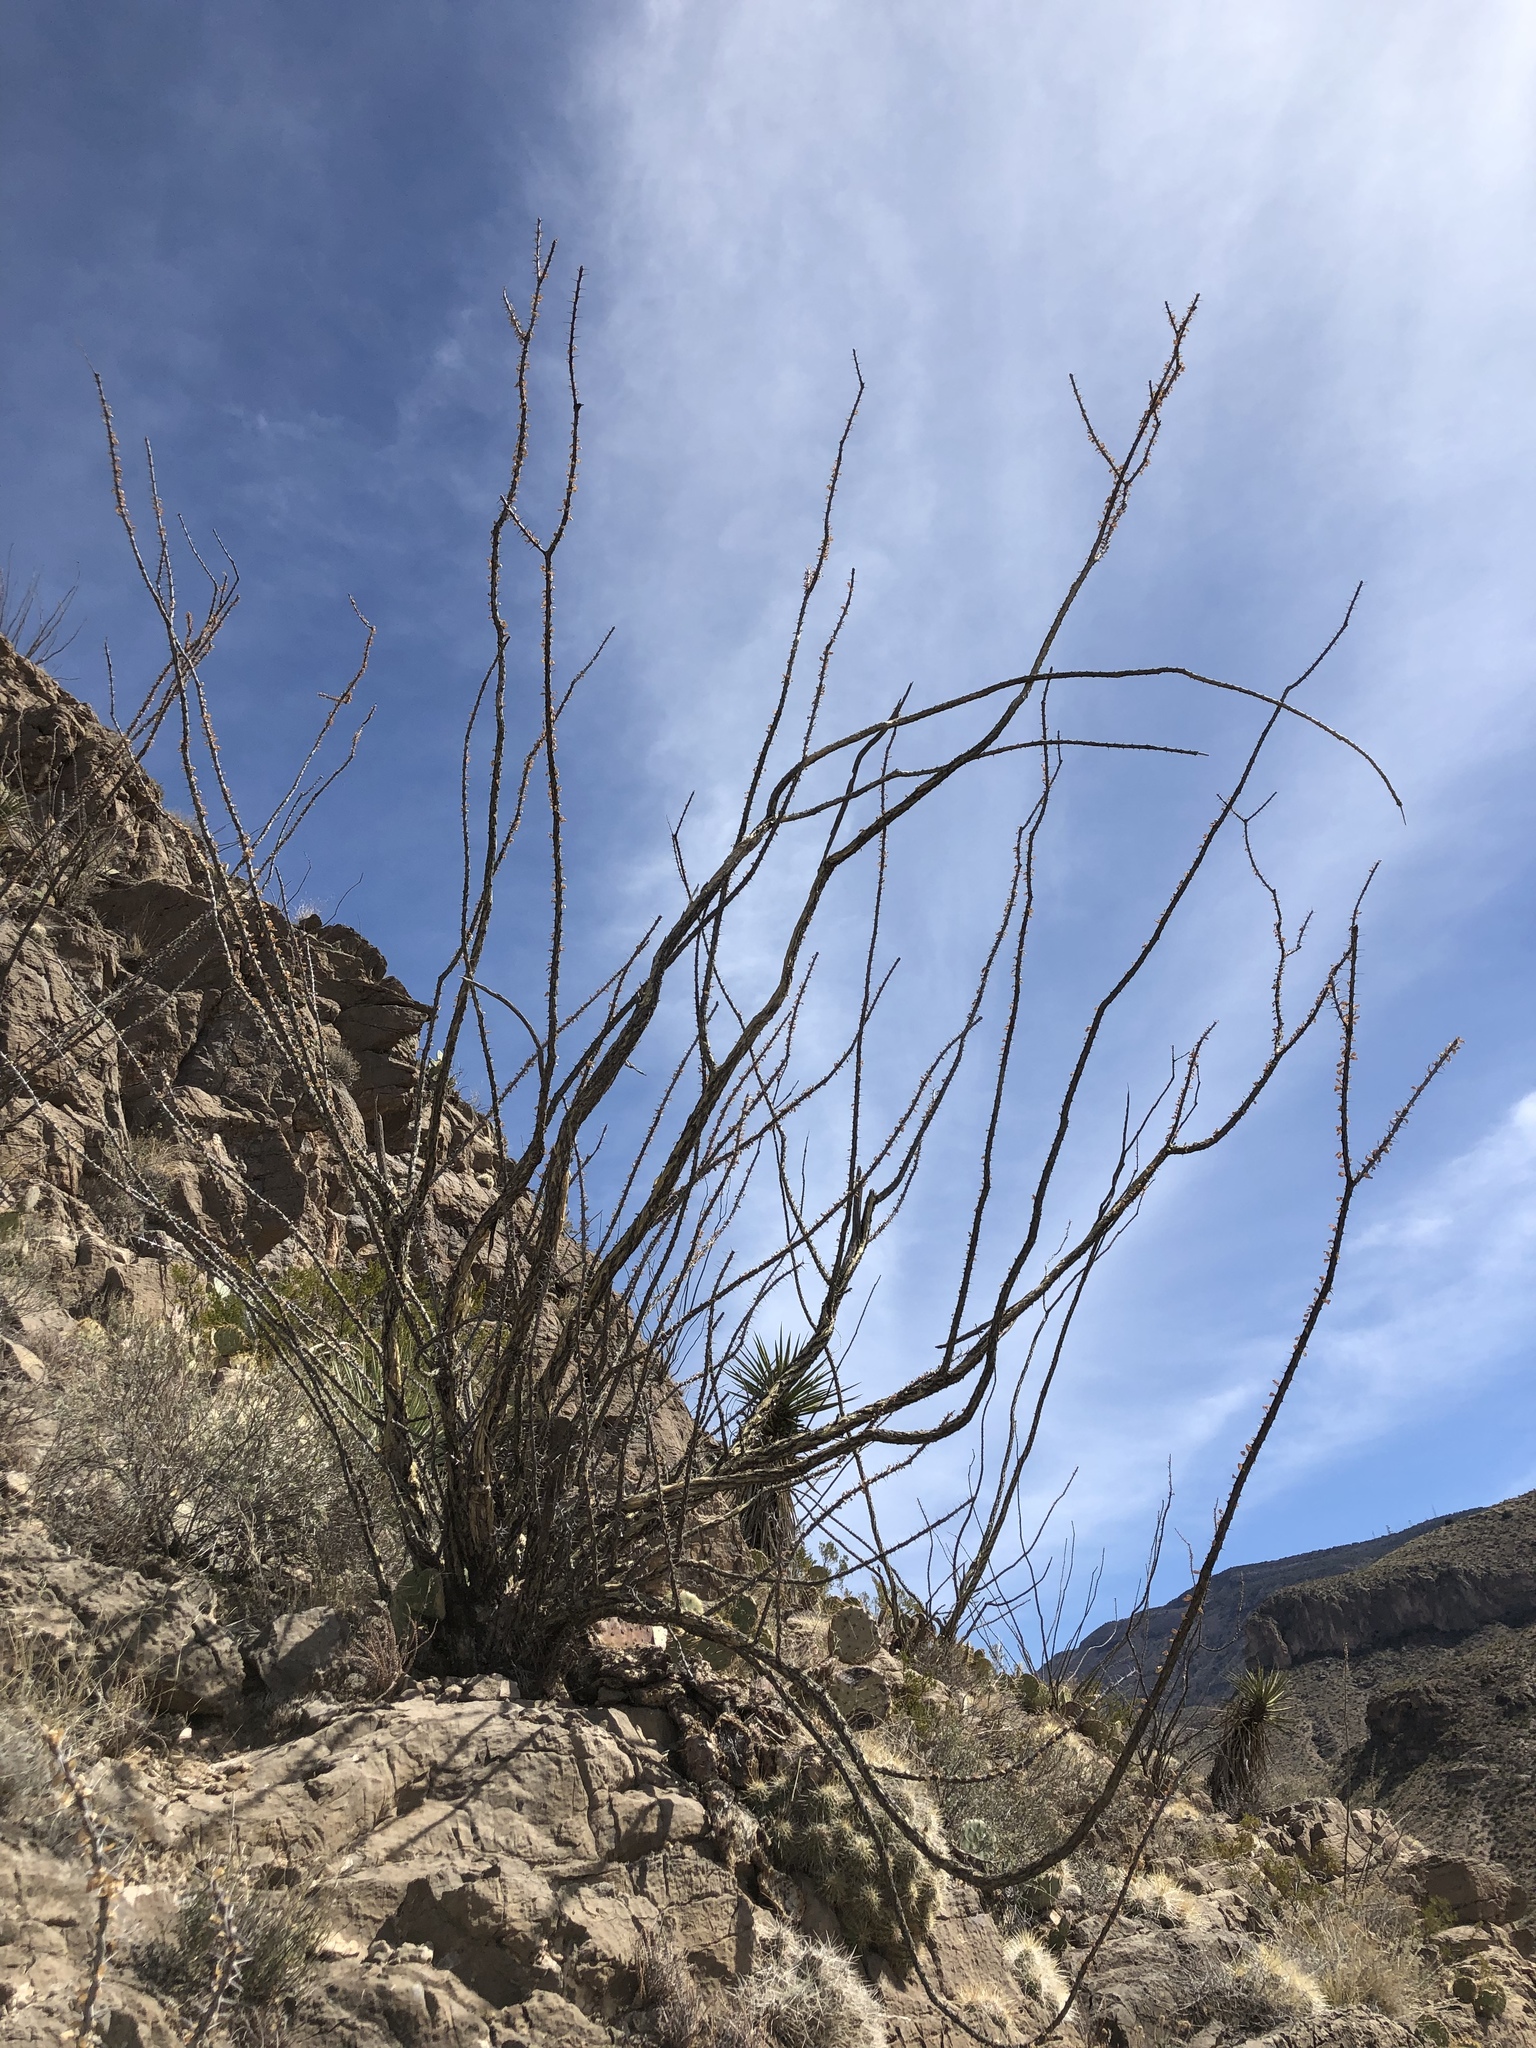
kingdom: Plantae
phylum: Tracheophyta
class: Magnoliopsida
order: Ericales
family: Fouquieriaceae
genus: Fouquieria
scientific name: Fouquieria splendens
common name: Vine-cactus
